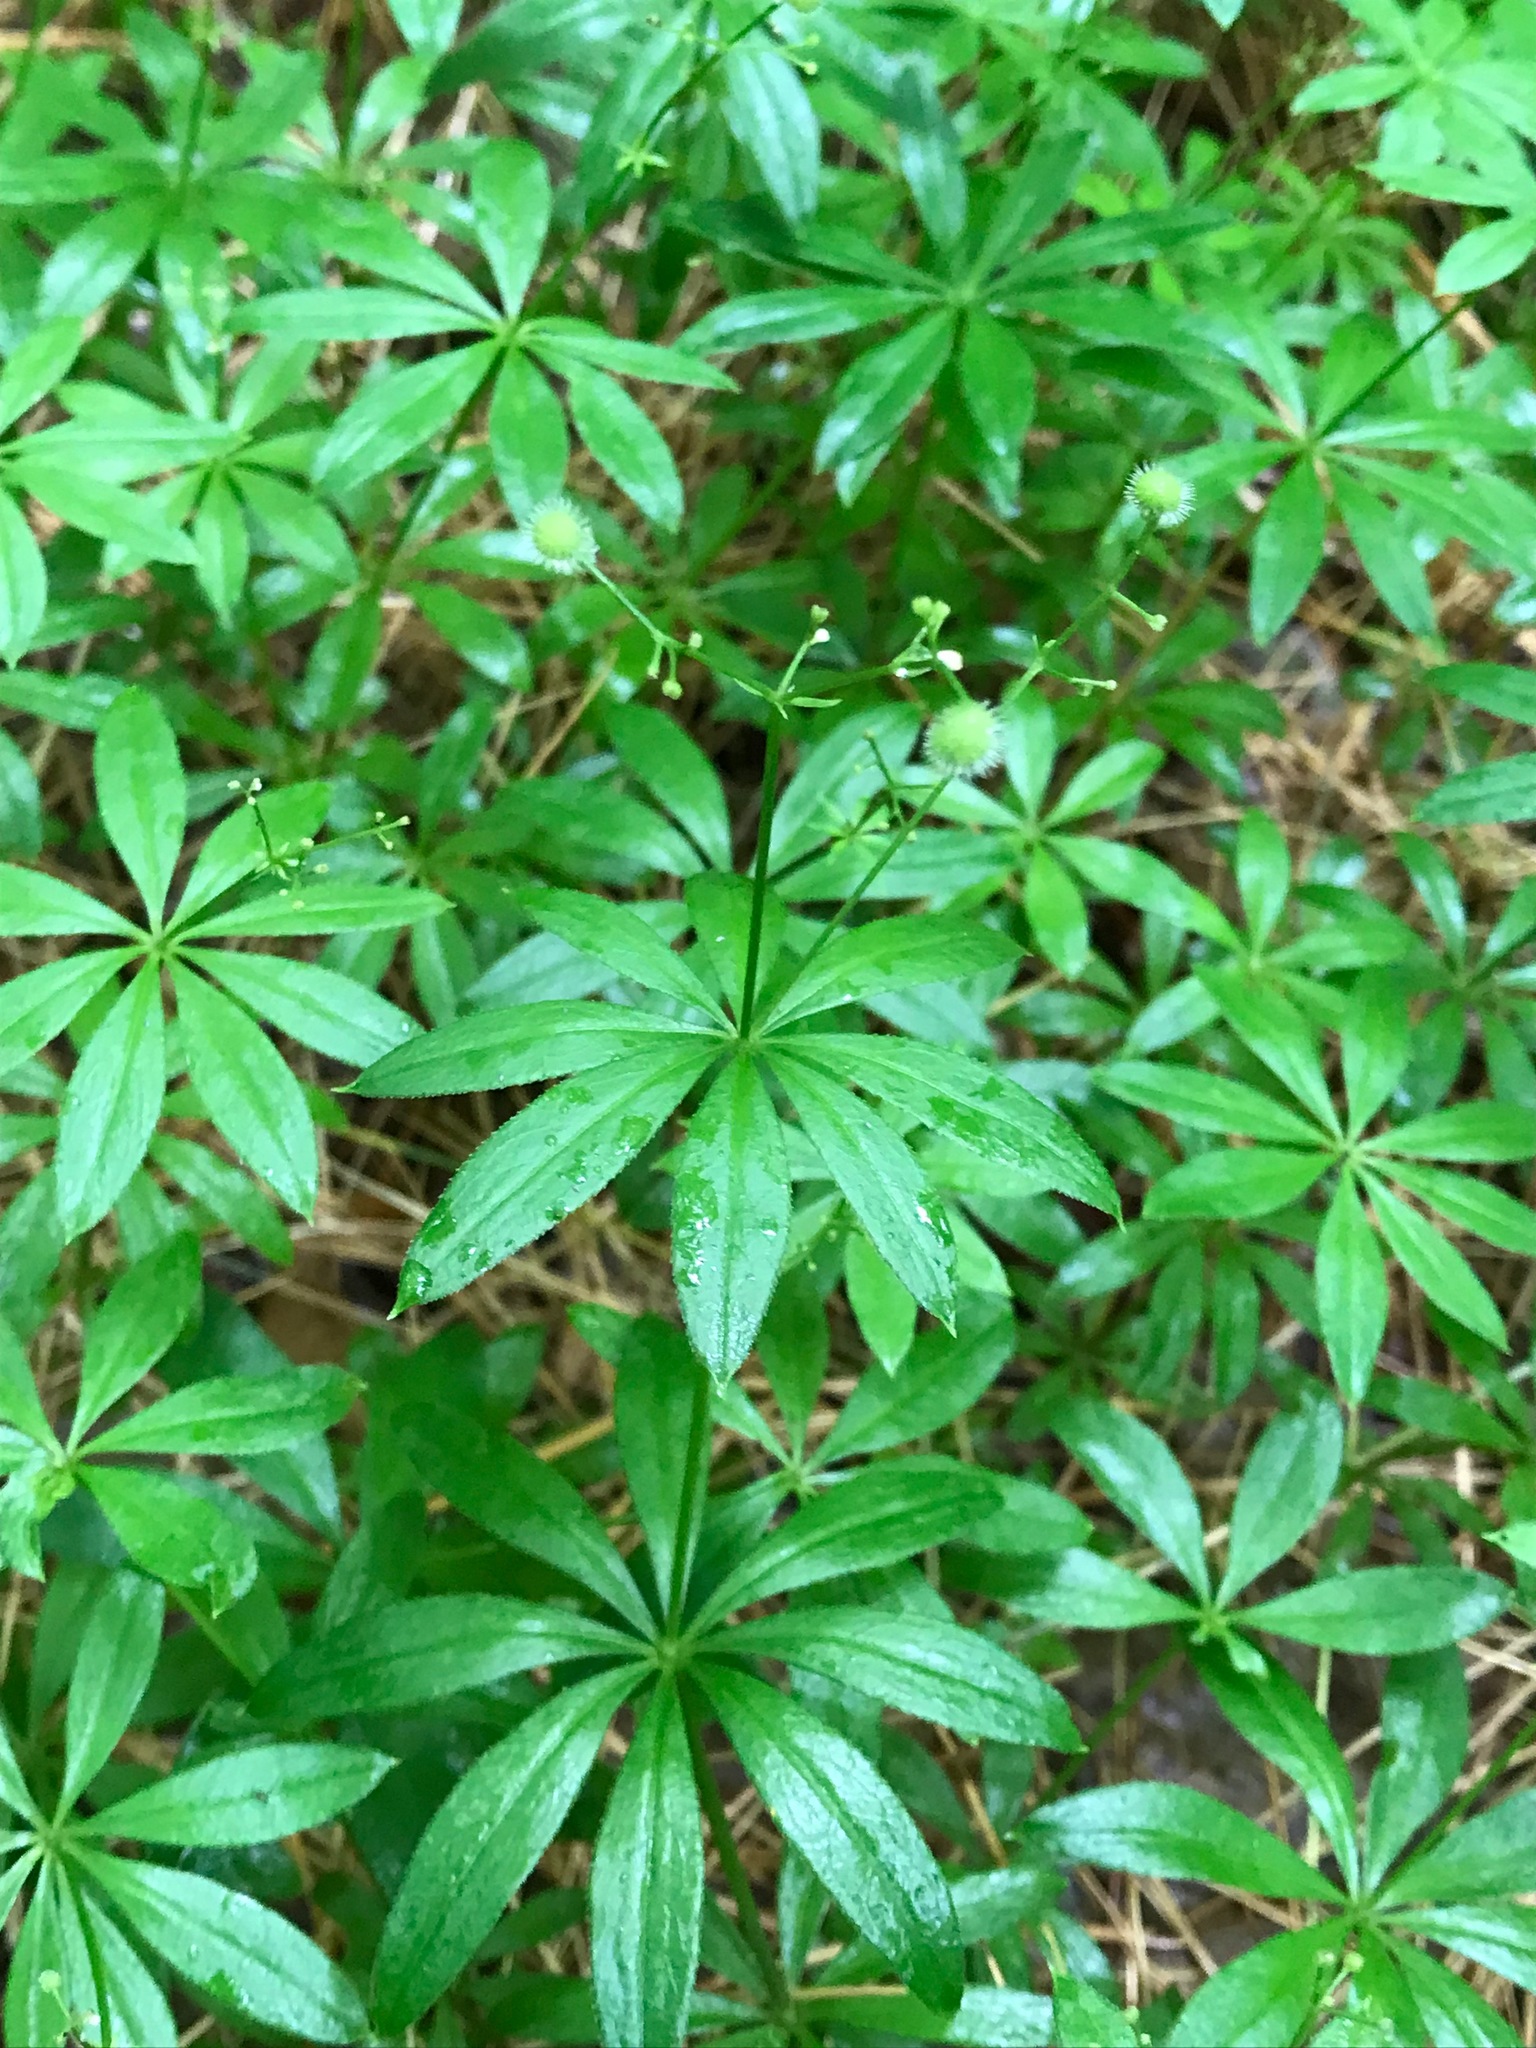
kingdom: Plantae
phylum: Tracheophyta
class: Magnoliopsida
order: Gentianales
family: Rubiaceae
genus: Galium
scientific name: Galium odoratum
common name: Sweet woodruff
